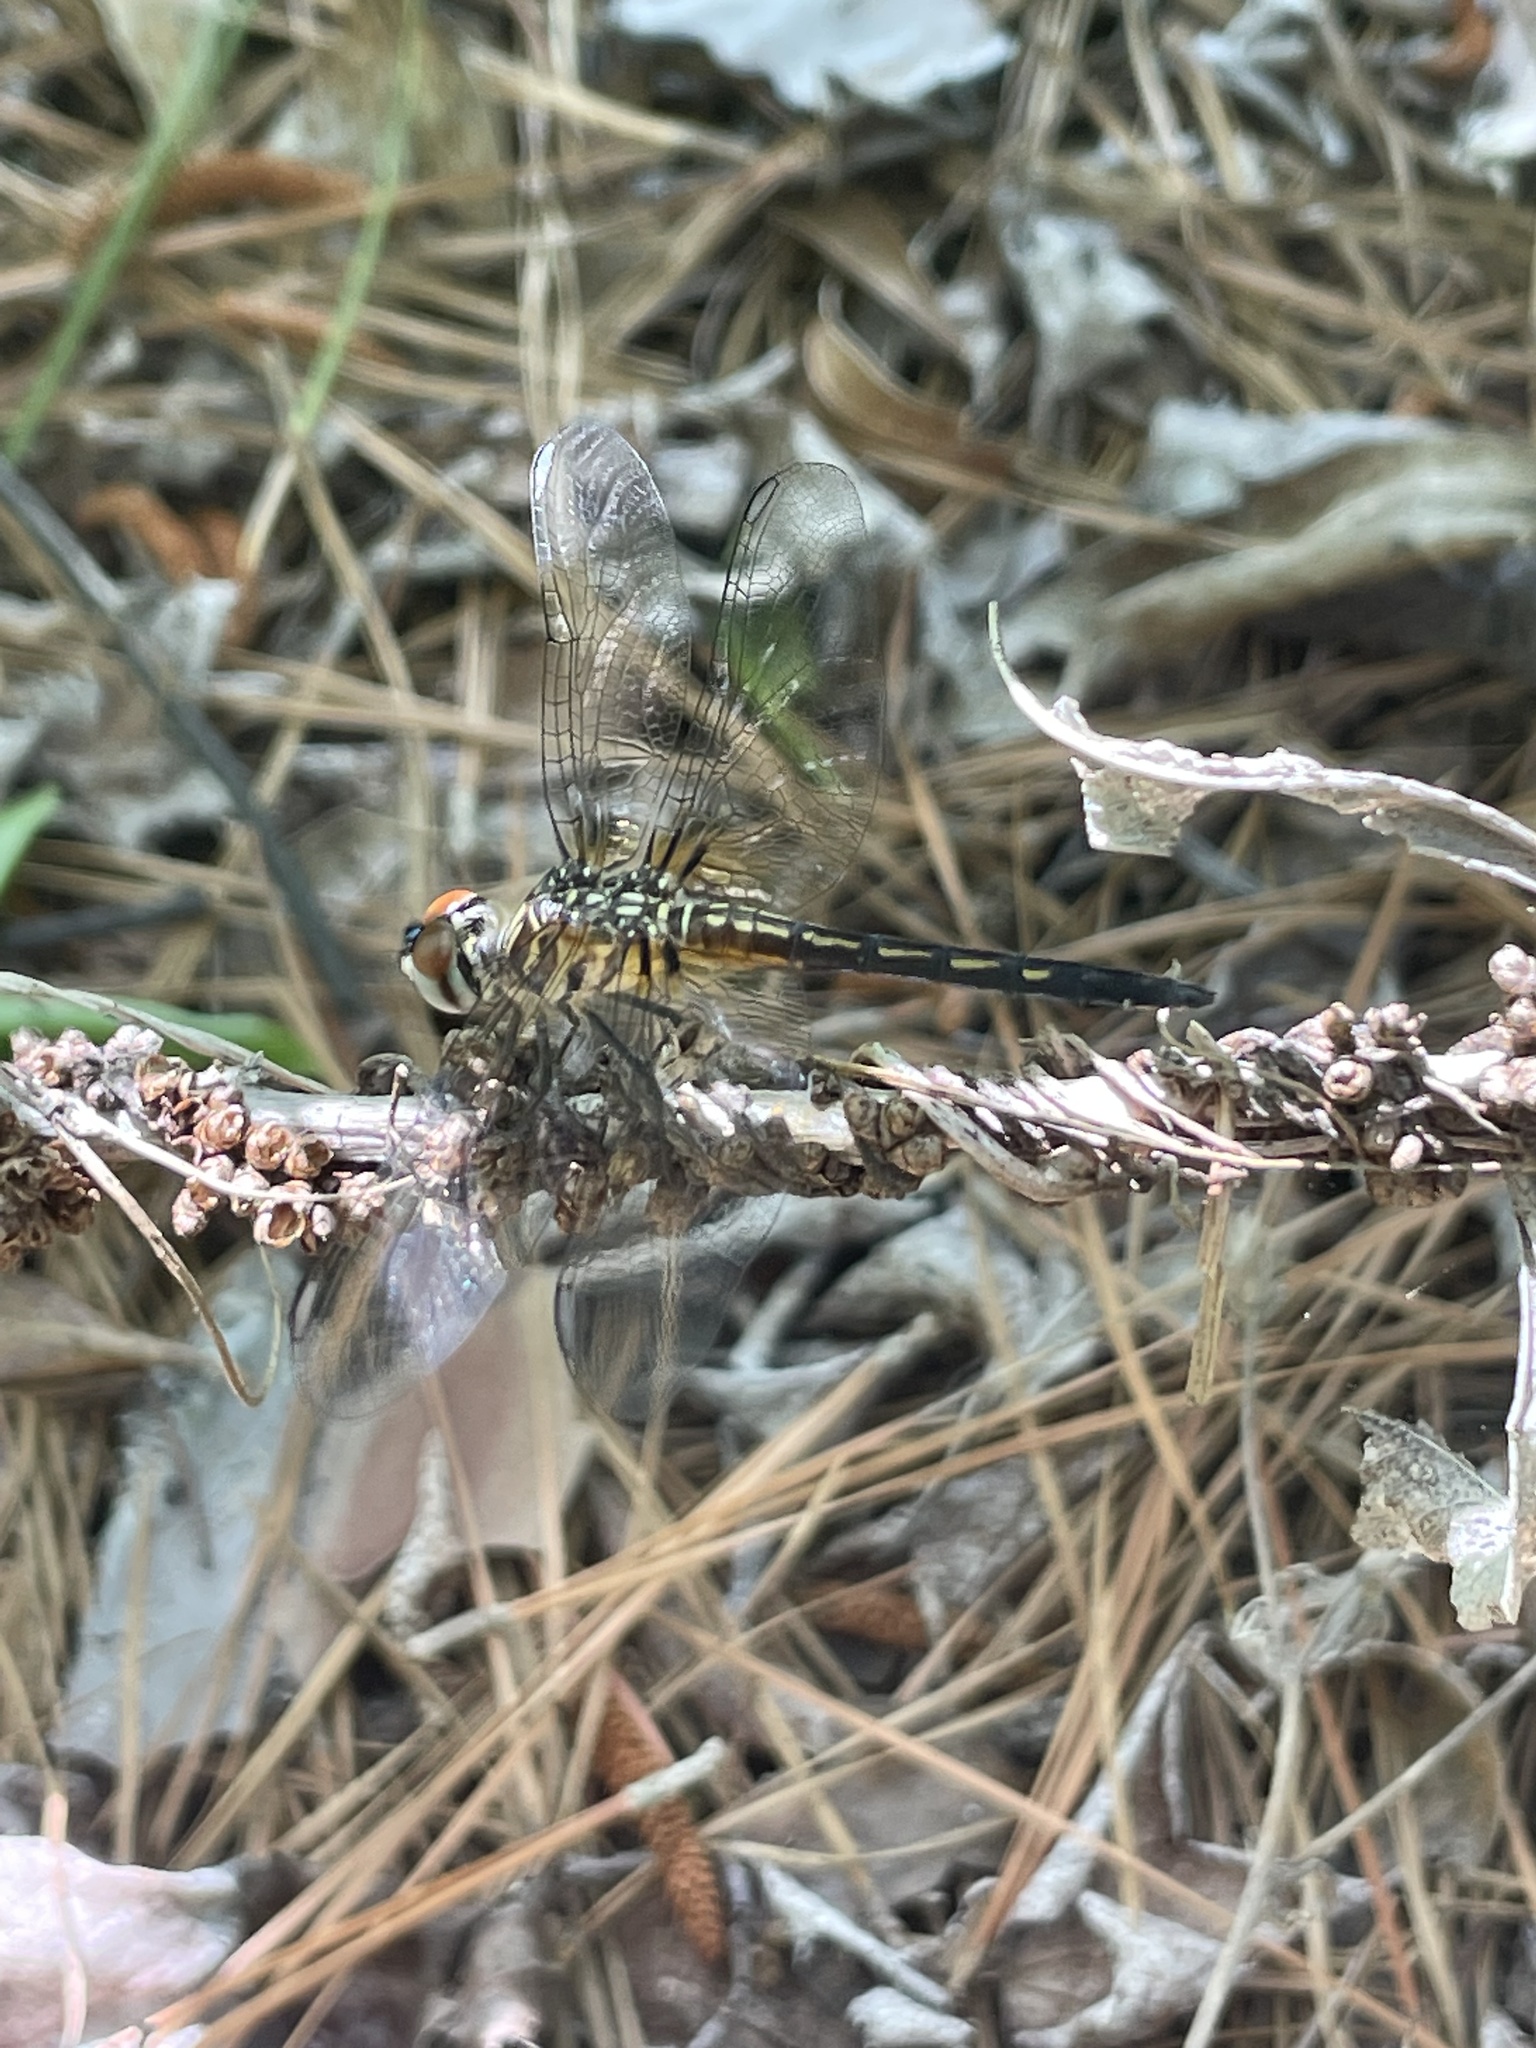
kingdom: Animalia
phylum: Arthropoda
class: Insecta
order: Odonata
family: Libellulidae
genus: Pachydiplax
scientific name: Pachydiplax longipennis
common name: Blue dasher
